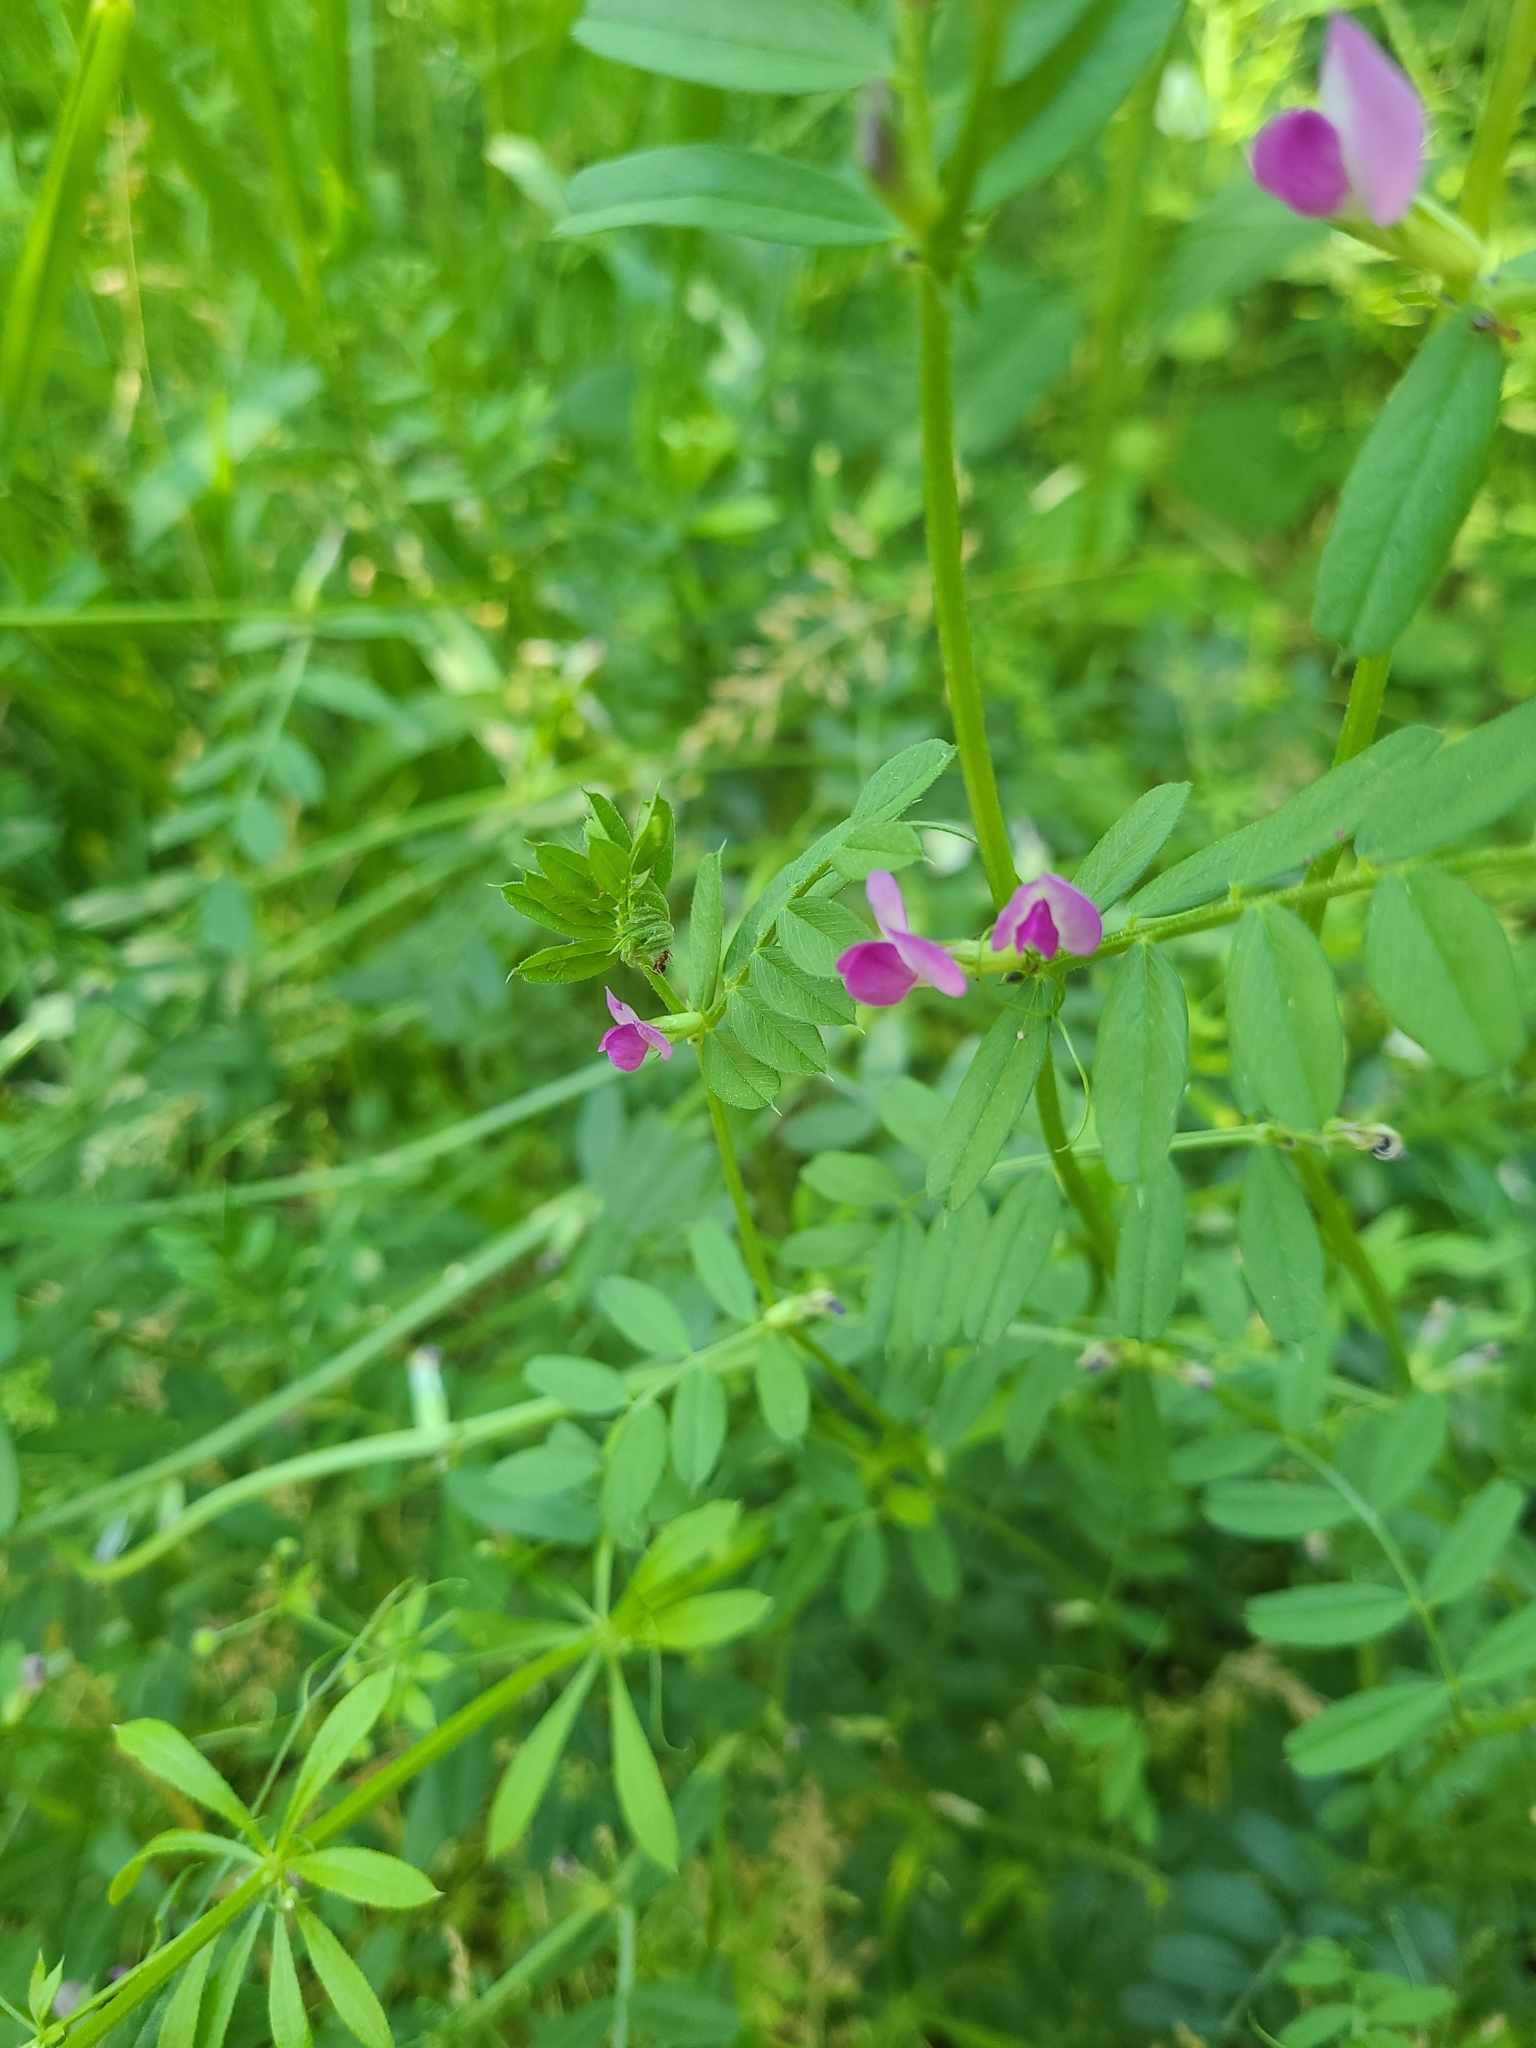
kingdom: Plantae
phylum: Tracheophyta
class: Magnoliopsida
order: Fabales
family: Fabaceae
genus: Vicia
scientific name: Vicia sativa
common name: Garden vetch
